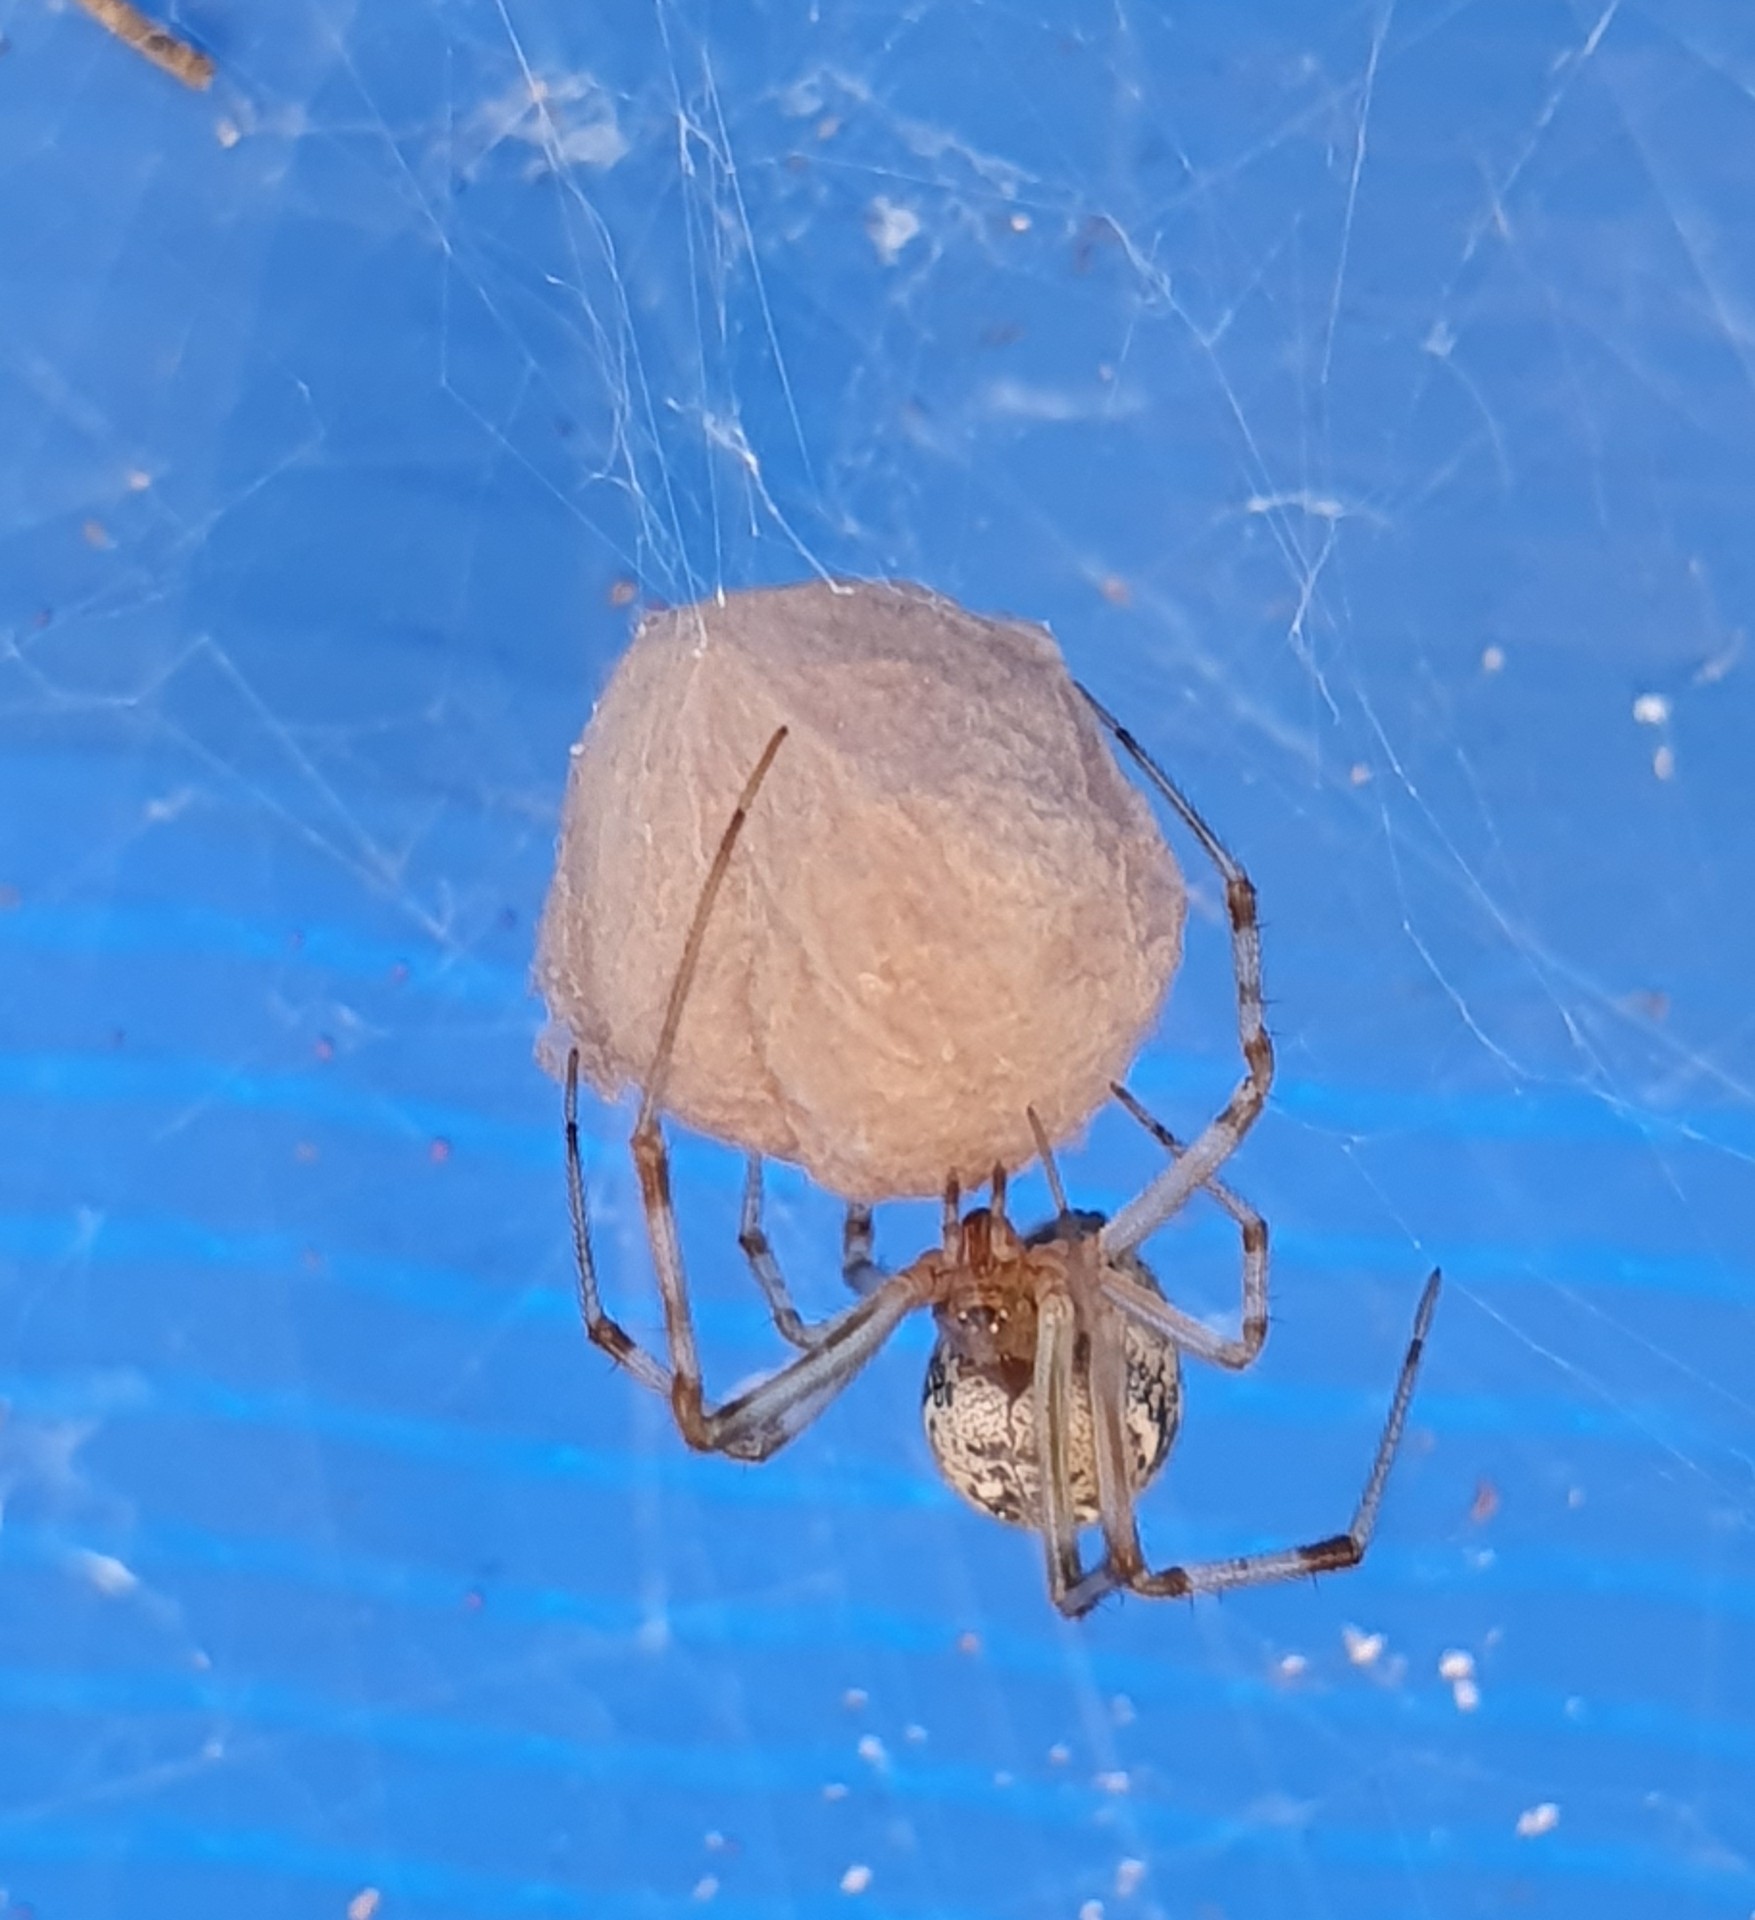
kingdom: Animalia
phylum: Arthropoda
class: Arachnida
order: Araneae
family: Theridiidae
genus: Parasteatoda
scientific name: Parasteatoda tepidariorum
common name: Common house spider
